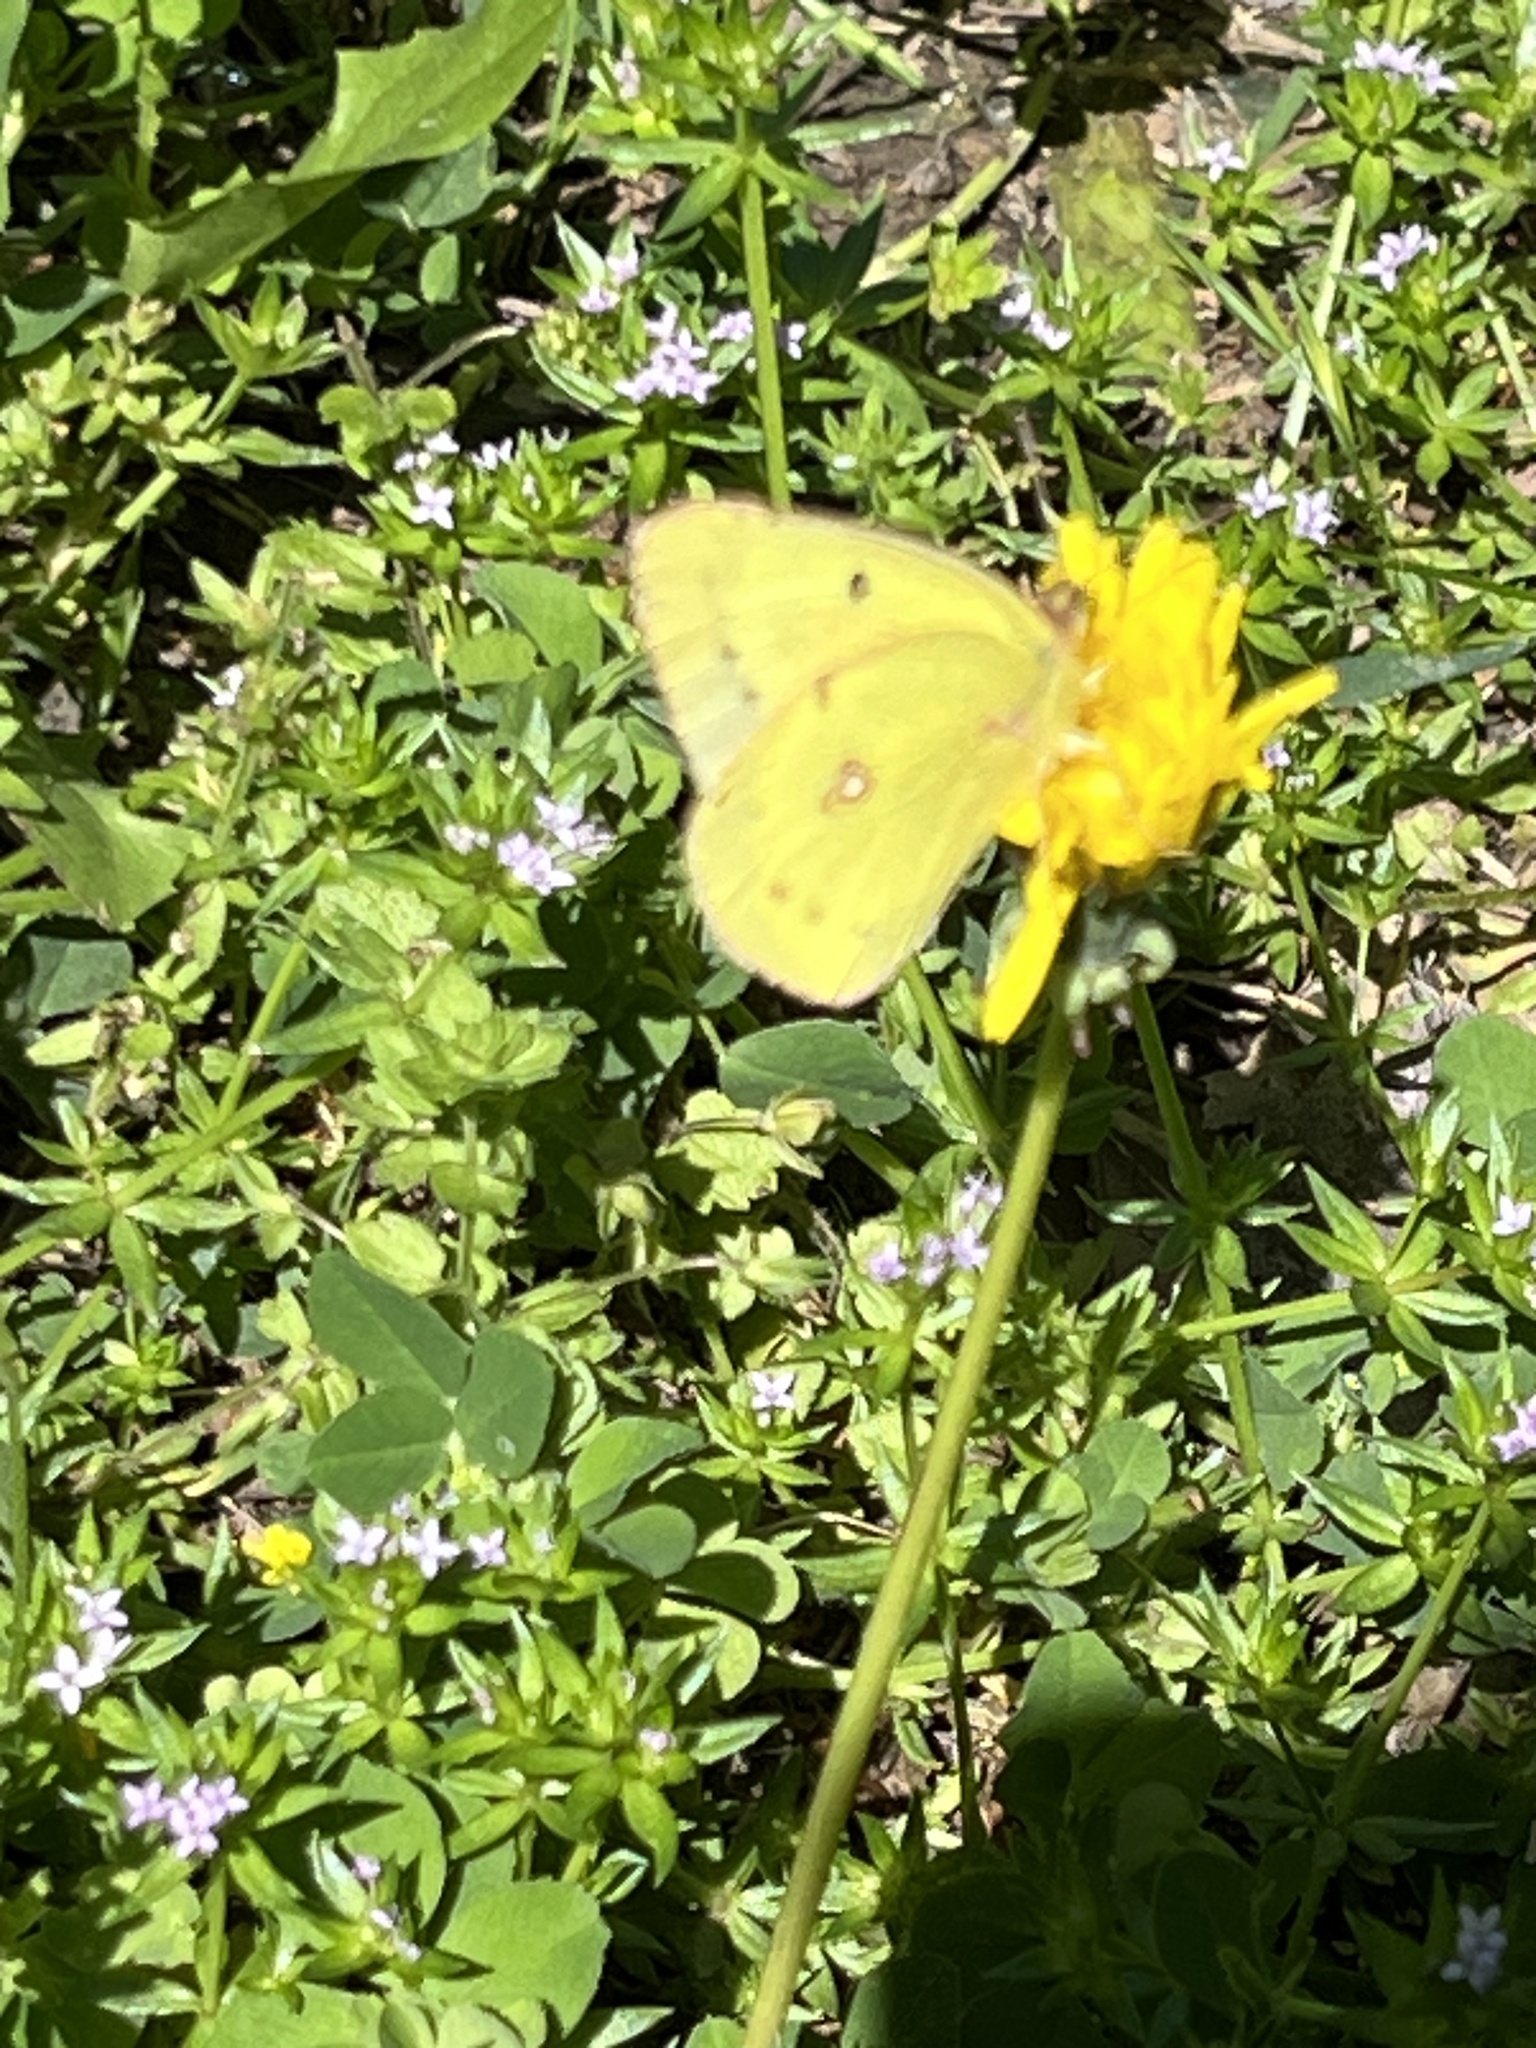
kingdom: Animalia
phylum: Arthropoda
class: Insecta
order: Lepidoptera
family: Pieridae
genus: Colias
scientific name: Colias eurytheme
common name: Alfalfa butterfly
